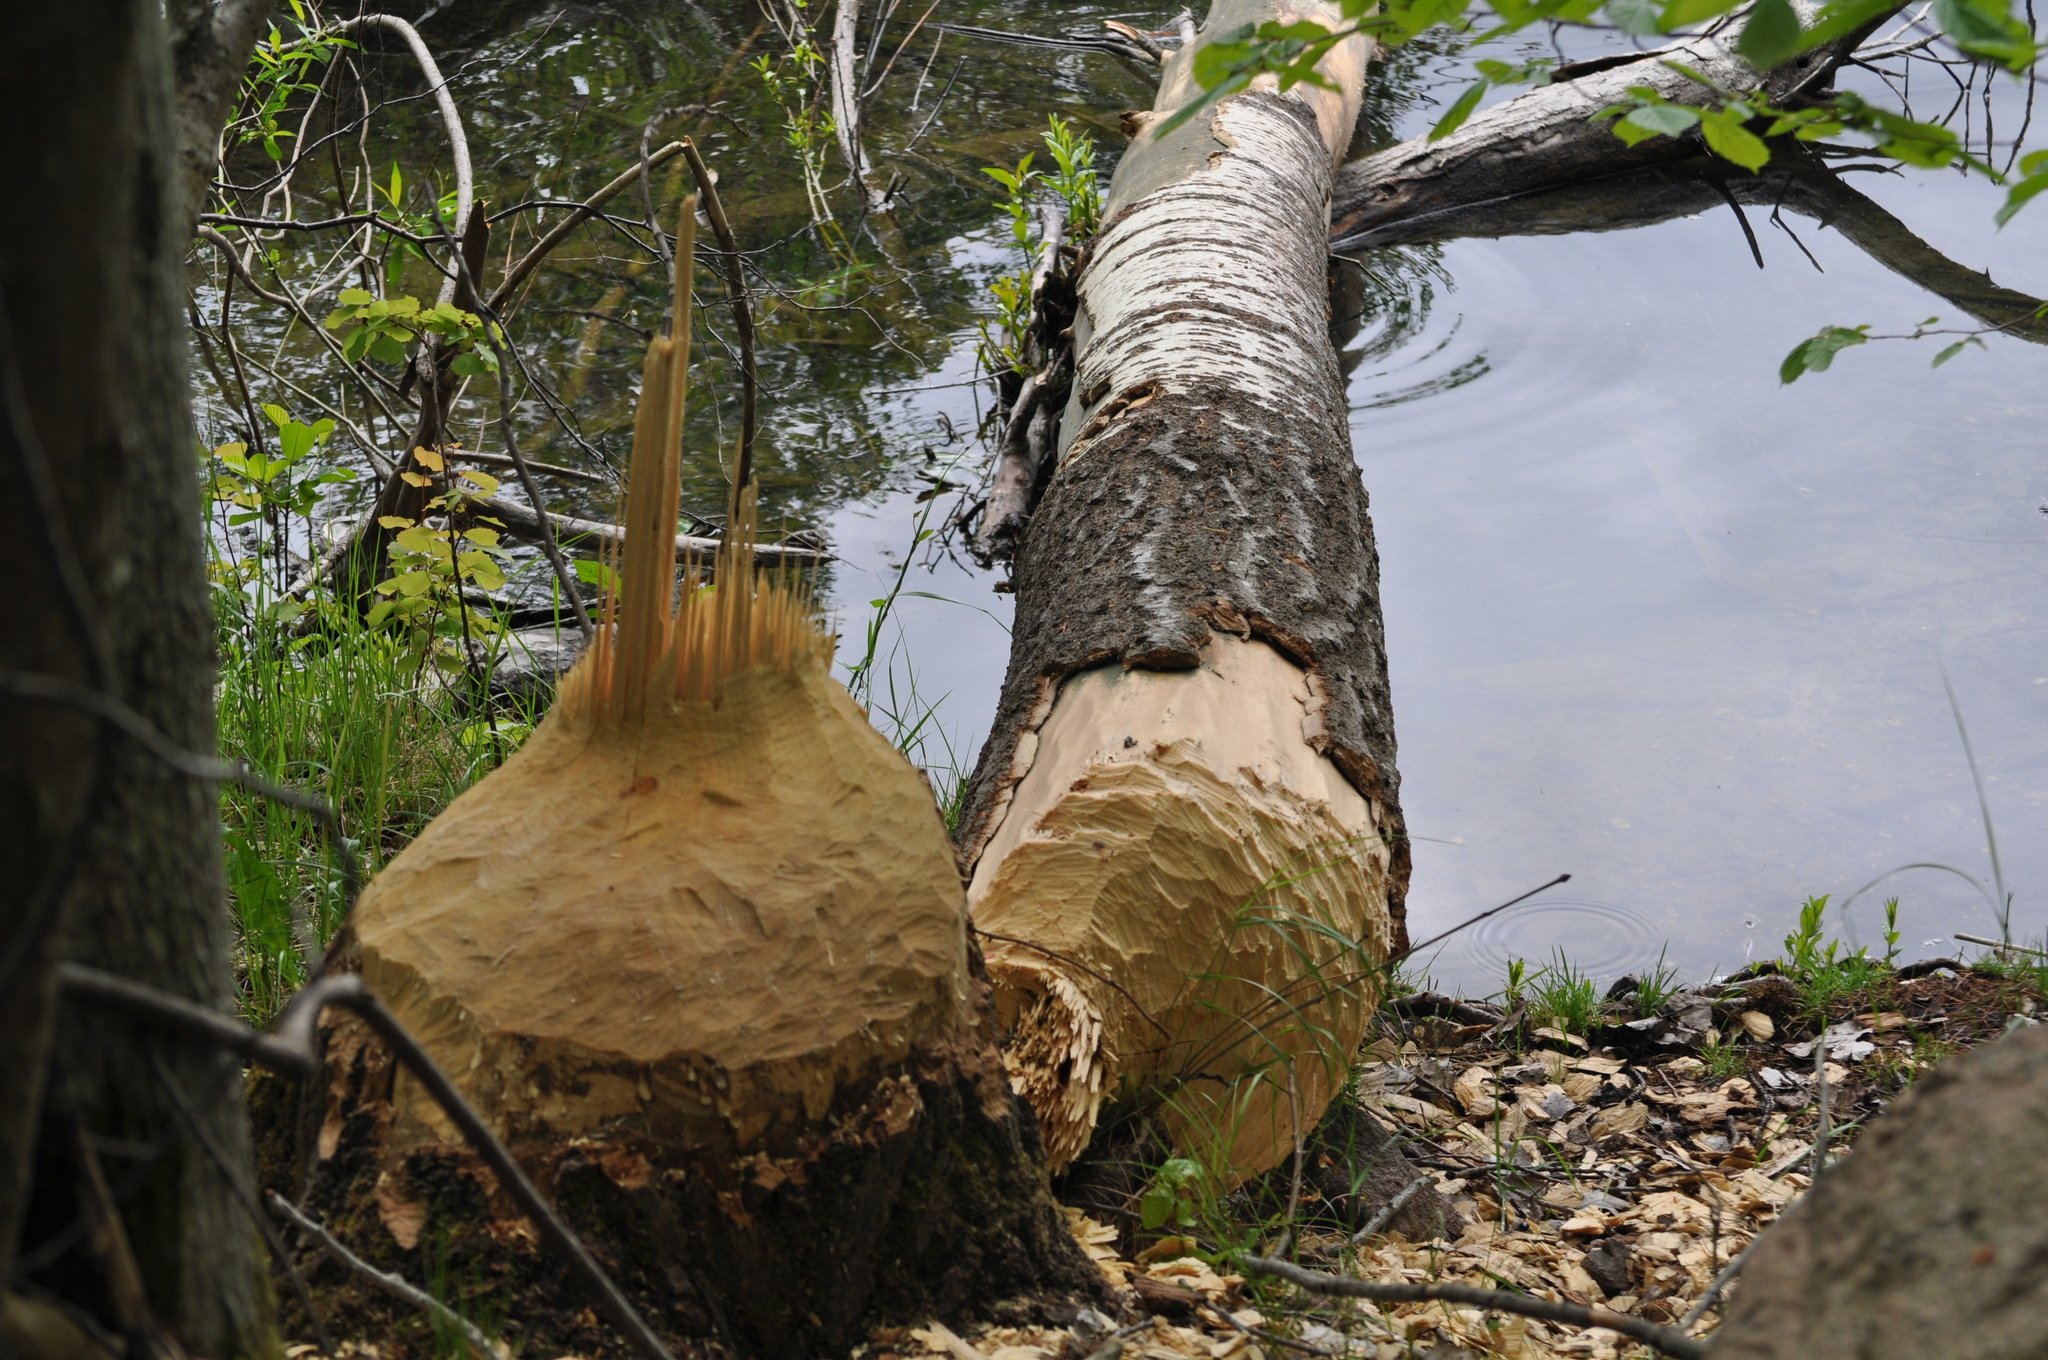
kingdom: Animalia
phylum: Chordata
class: Mammalia
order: Rodentia
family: Castoridae
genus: Castor
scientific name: Castor fiber
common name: Eurasian beaver
